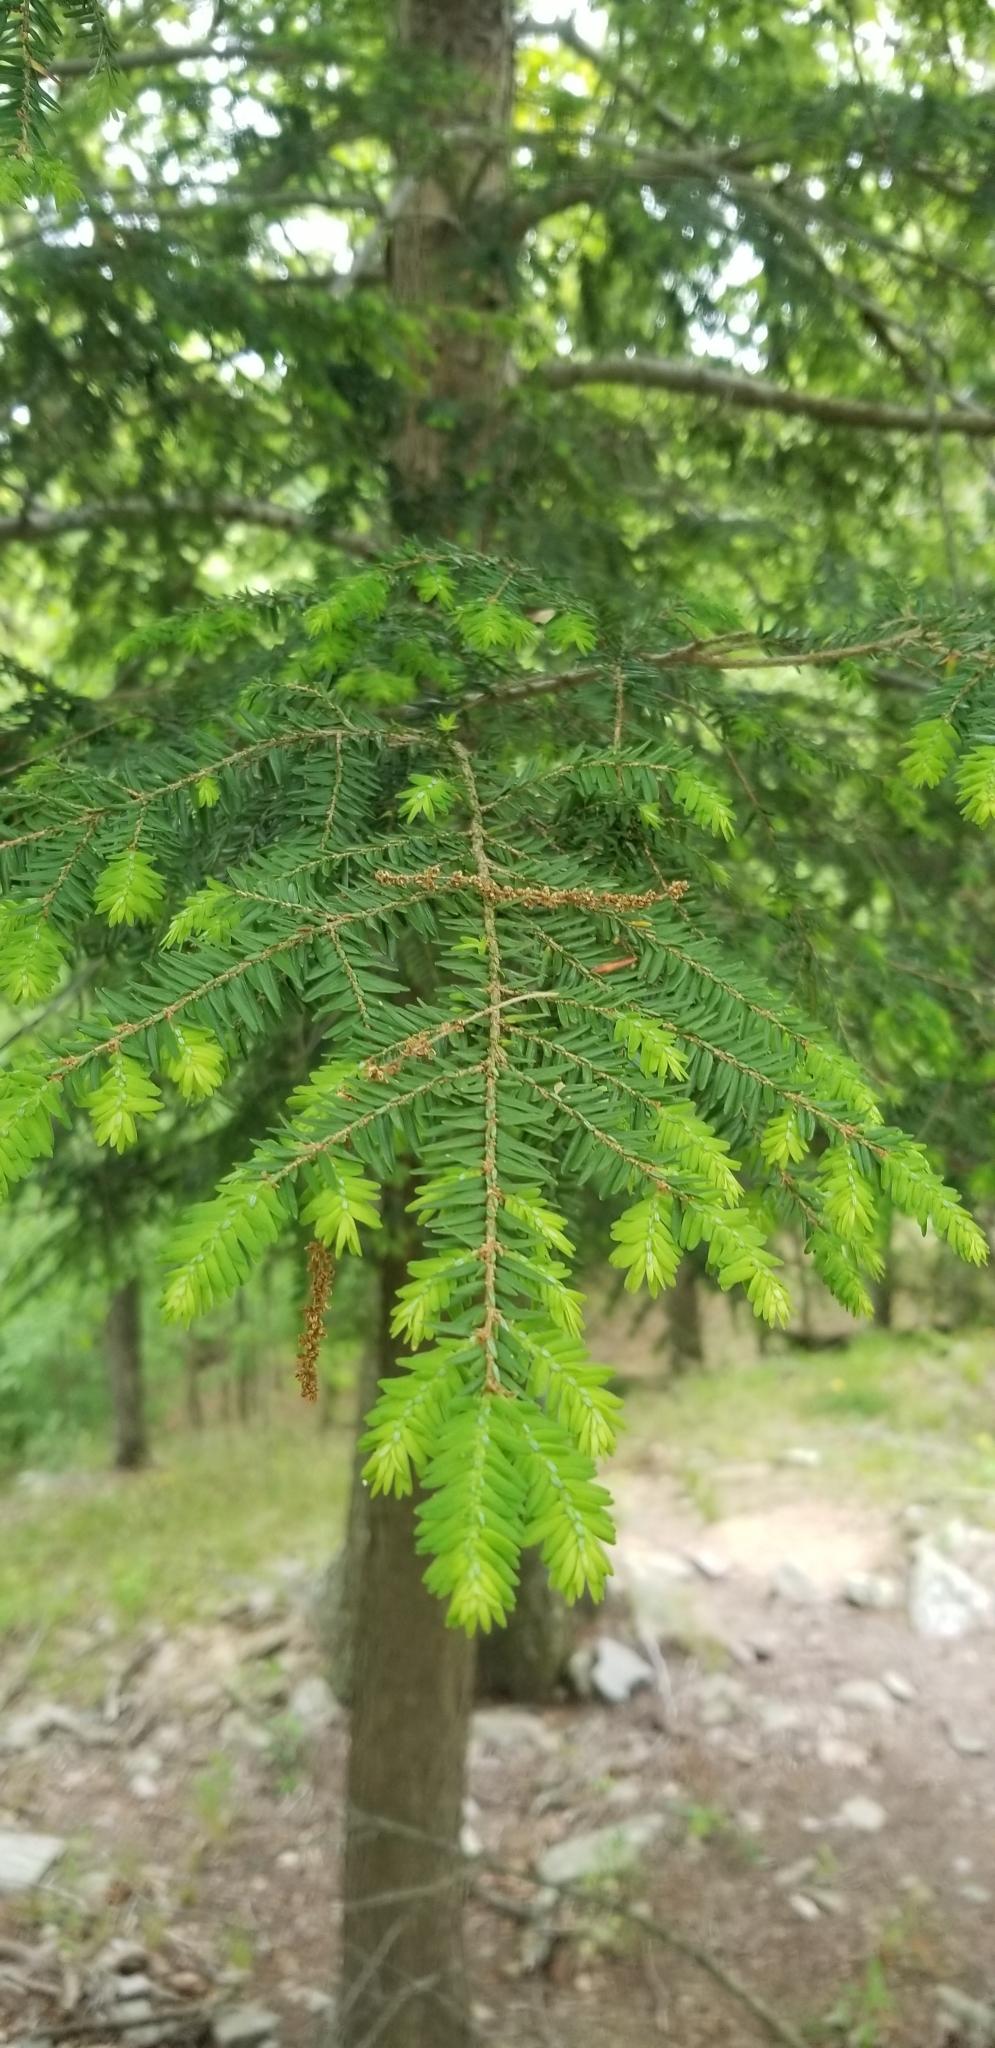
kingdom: Plantae
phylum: Tracheophyta
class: Pinopsida
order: Pinales
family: Pinaceae
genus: Tsuga
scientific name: Tsuga canadensis
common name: Eastern hemlock
